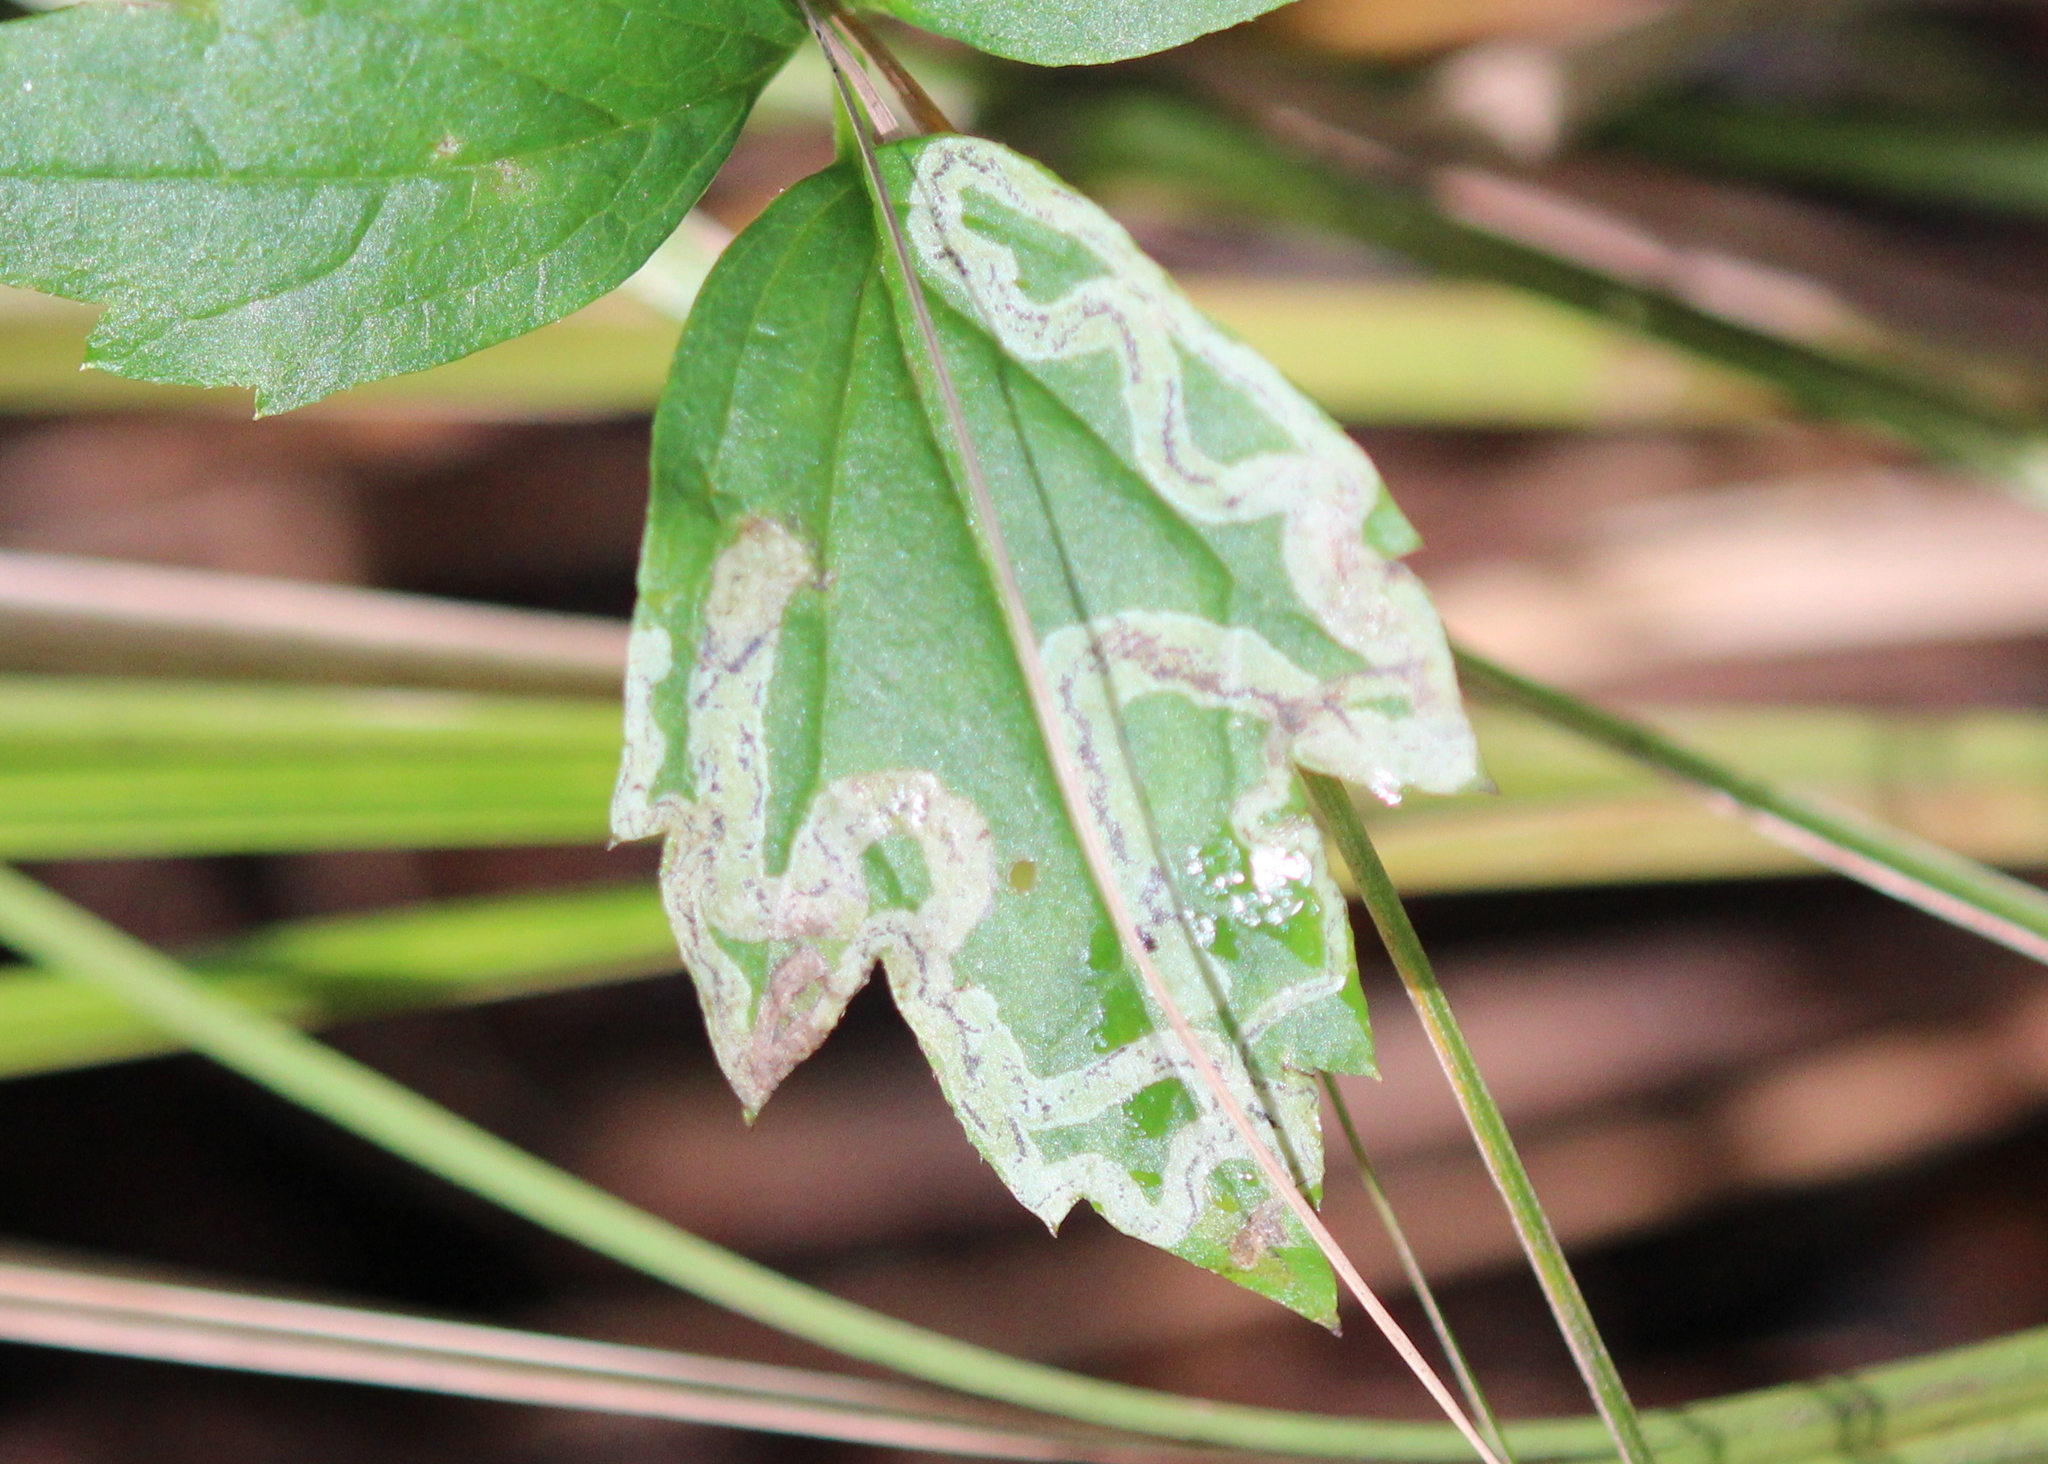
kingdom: Animalia
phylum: Arthropoda
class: Insecta
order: Diptera
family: Agromyzidae
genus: Phytomyza
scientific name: Phytomyza loewii
